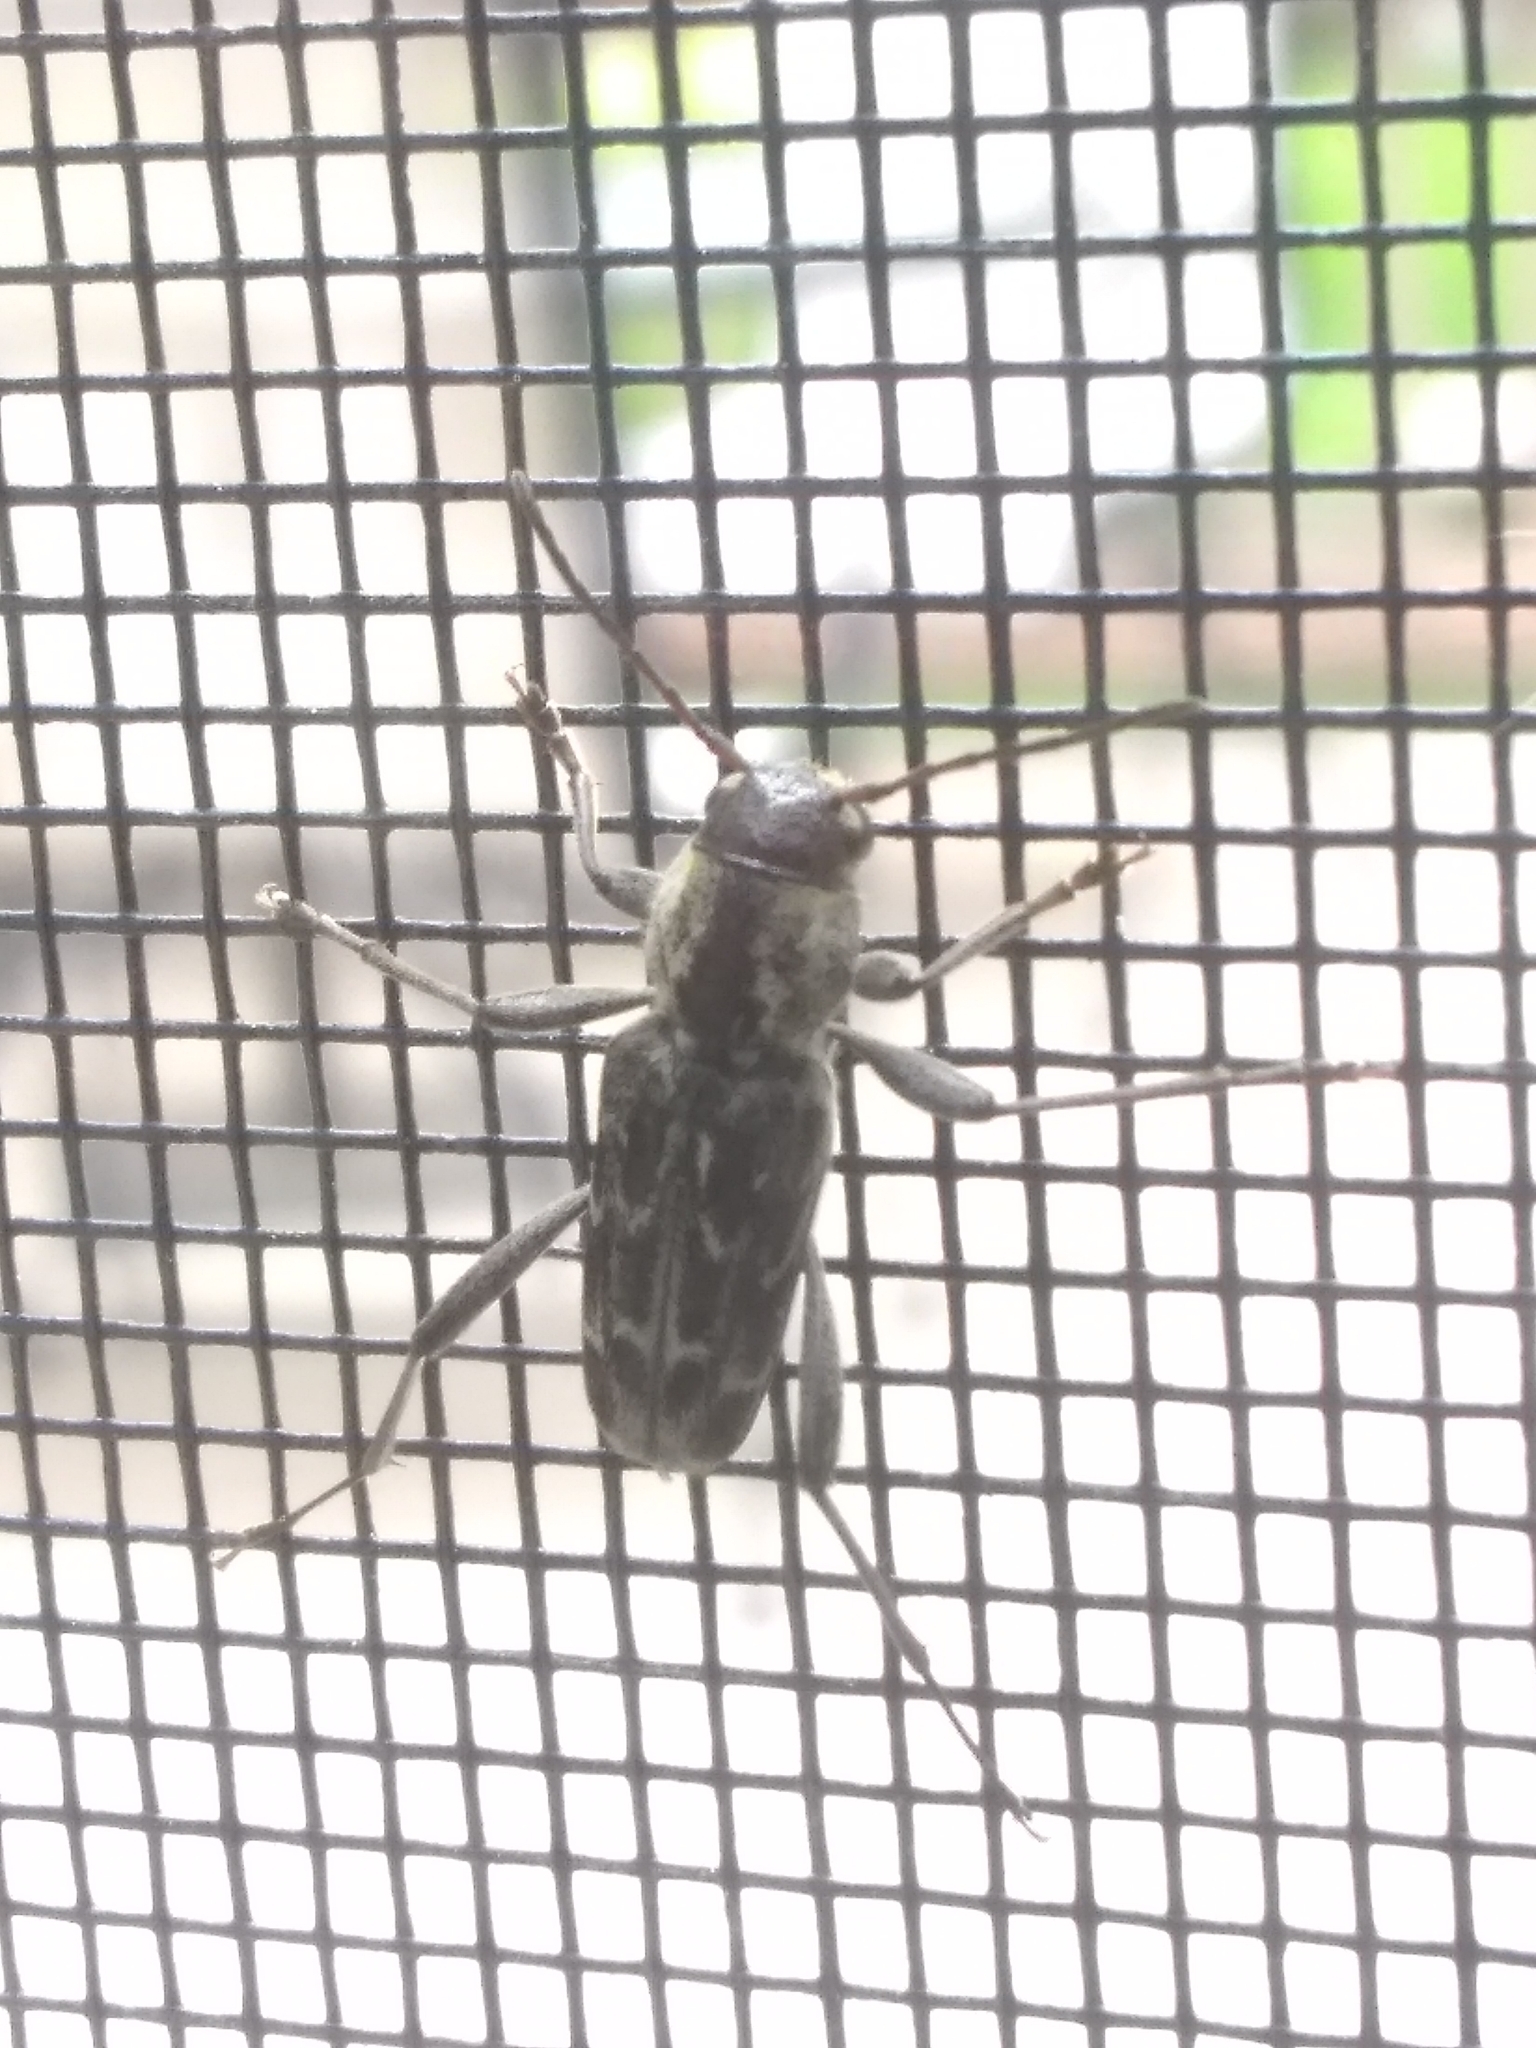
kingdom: Animalia
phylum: Arthropoda
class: Insecta
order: Coleoptera
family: Cerambycidae
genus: Xylotrechus
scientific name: Xylotrechus integer
